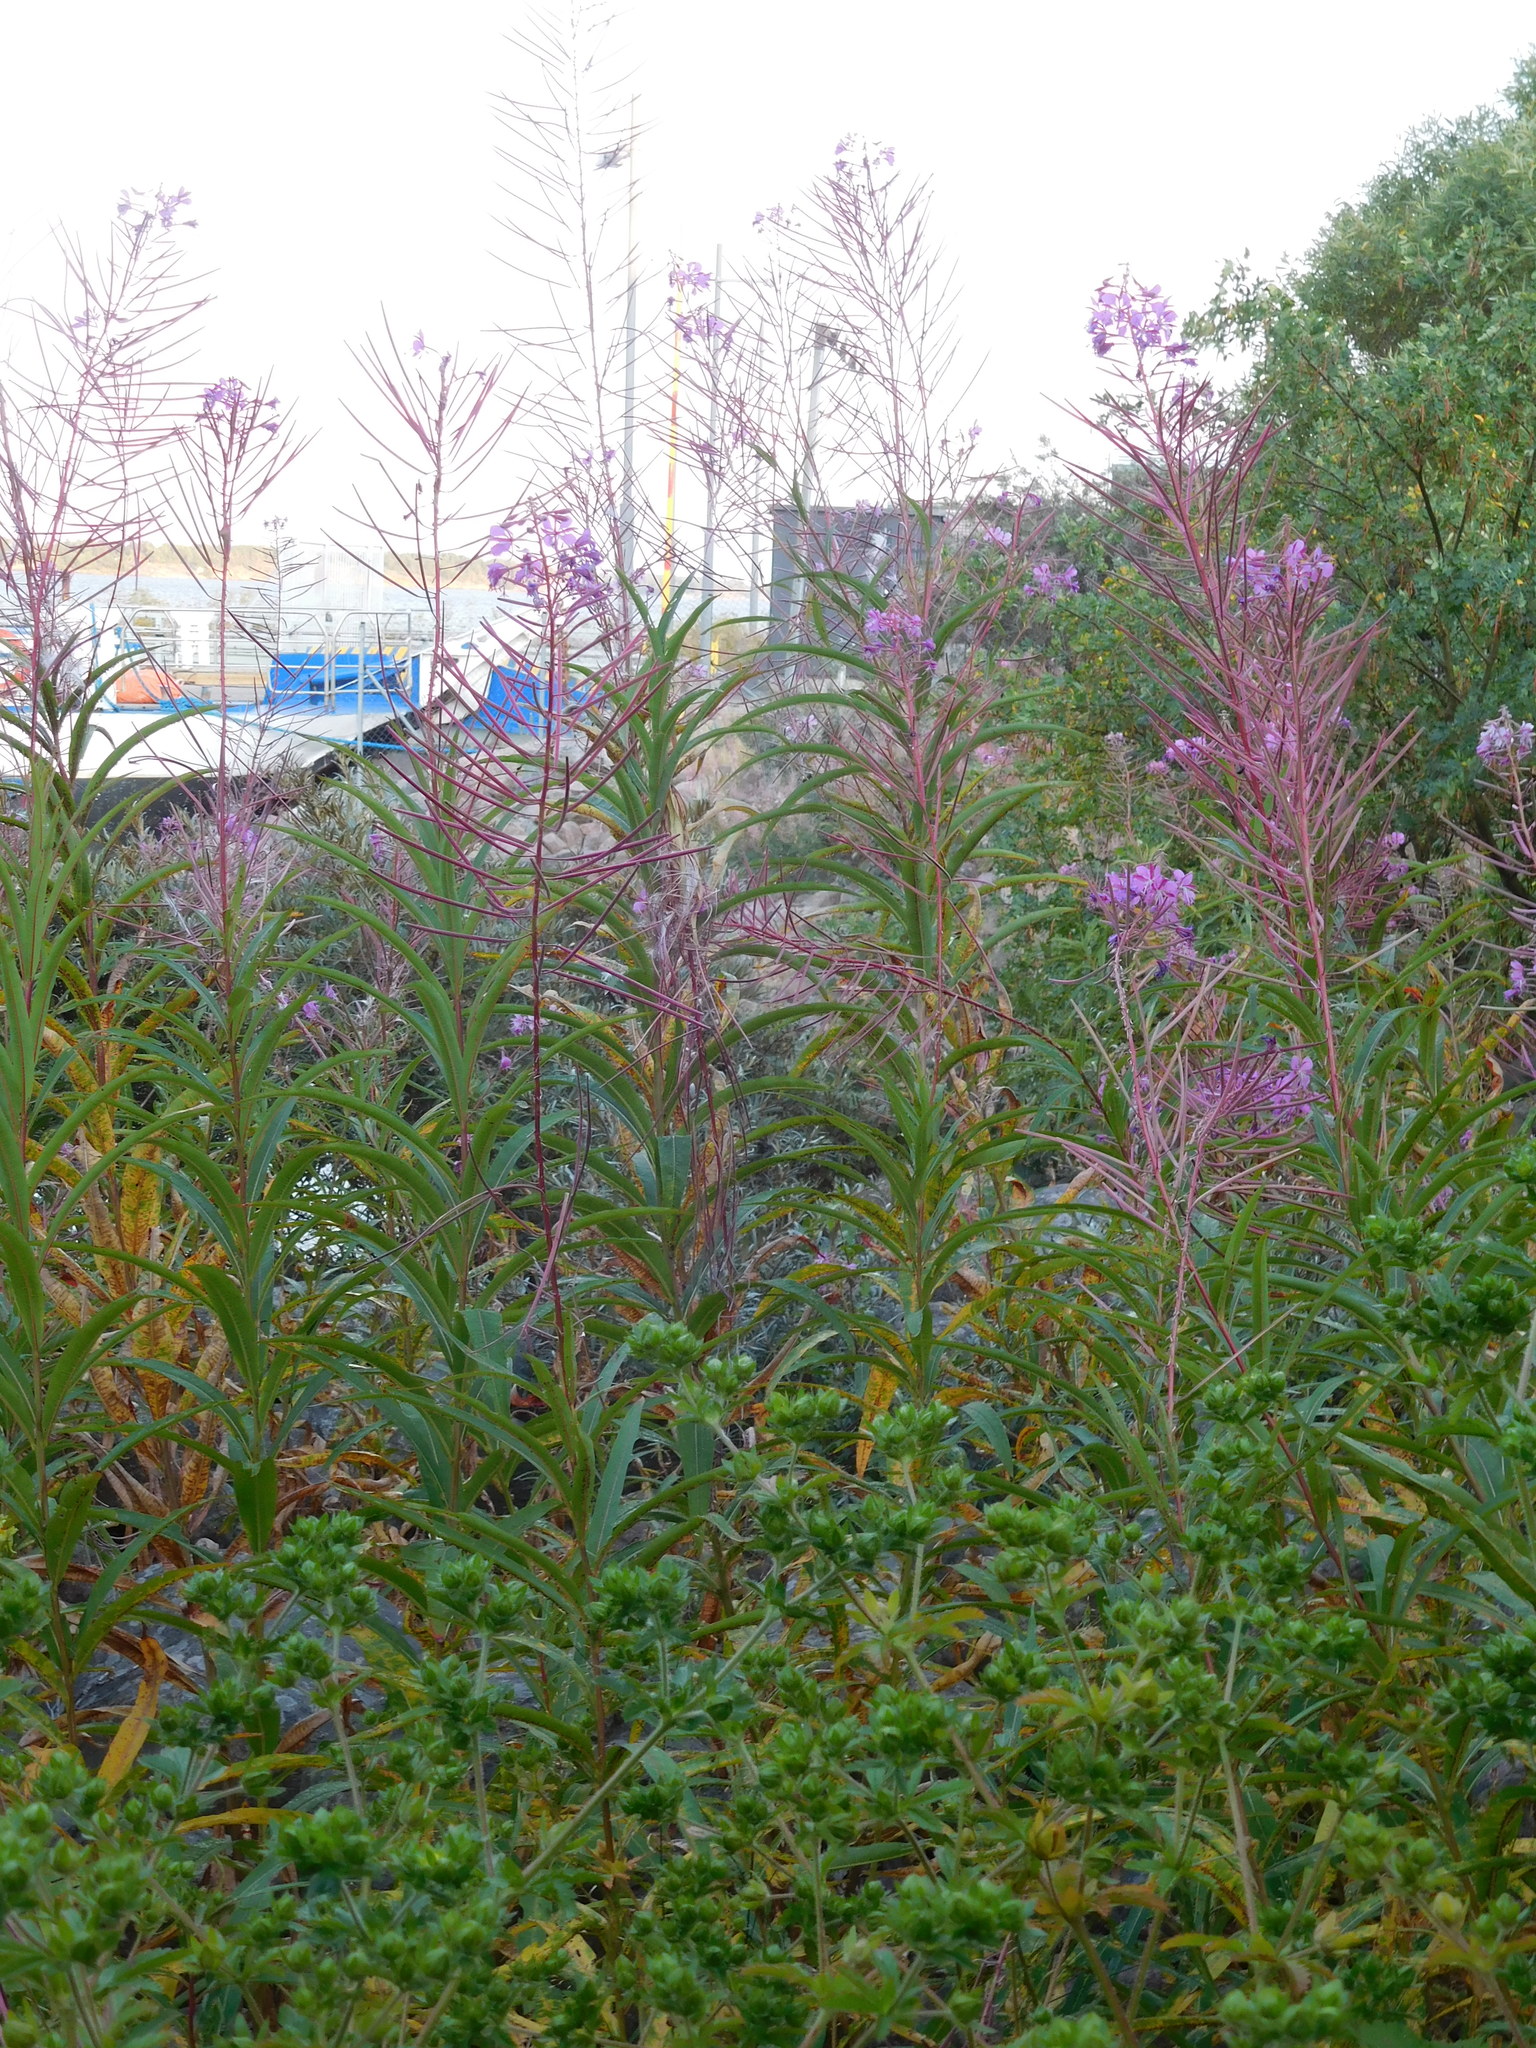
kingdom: Plantae
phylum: Tracheophyta
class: Magnoliopsida
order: Myrtales
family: Onagraceae
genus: Chamaenerion
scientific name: Chamaenerion angustifolium
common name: Fireweed
